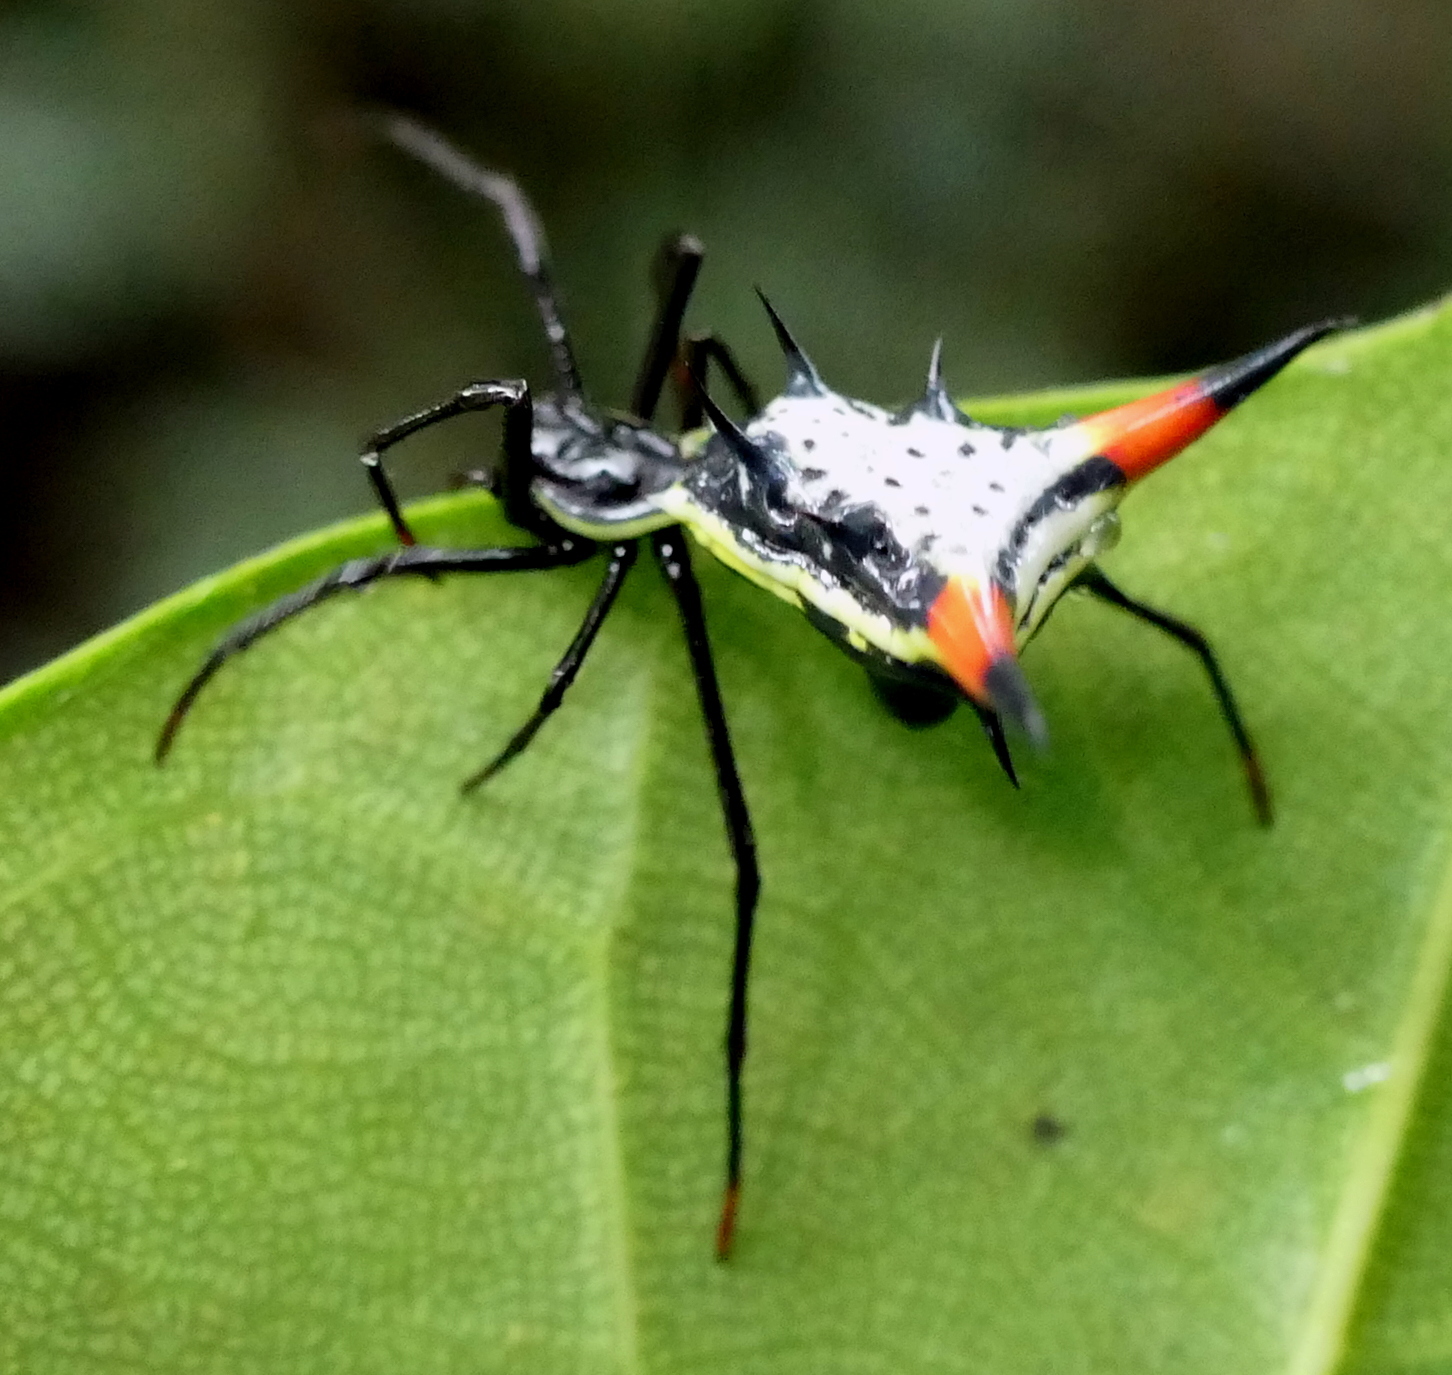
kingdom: Animalia
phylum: Arthropoda
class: Arachnida
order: Araneae
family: Araneidae
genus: Micrathena
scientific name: Micrathena schreibersi
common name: Orb weavers
